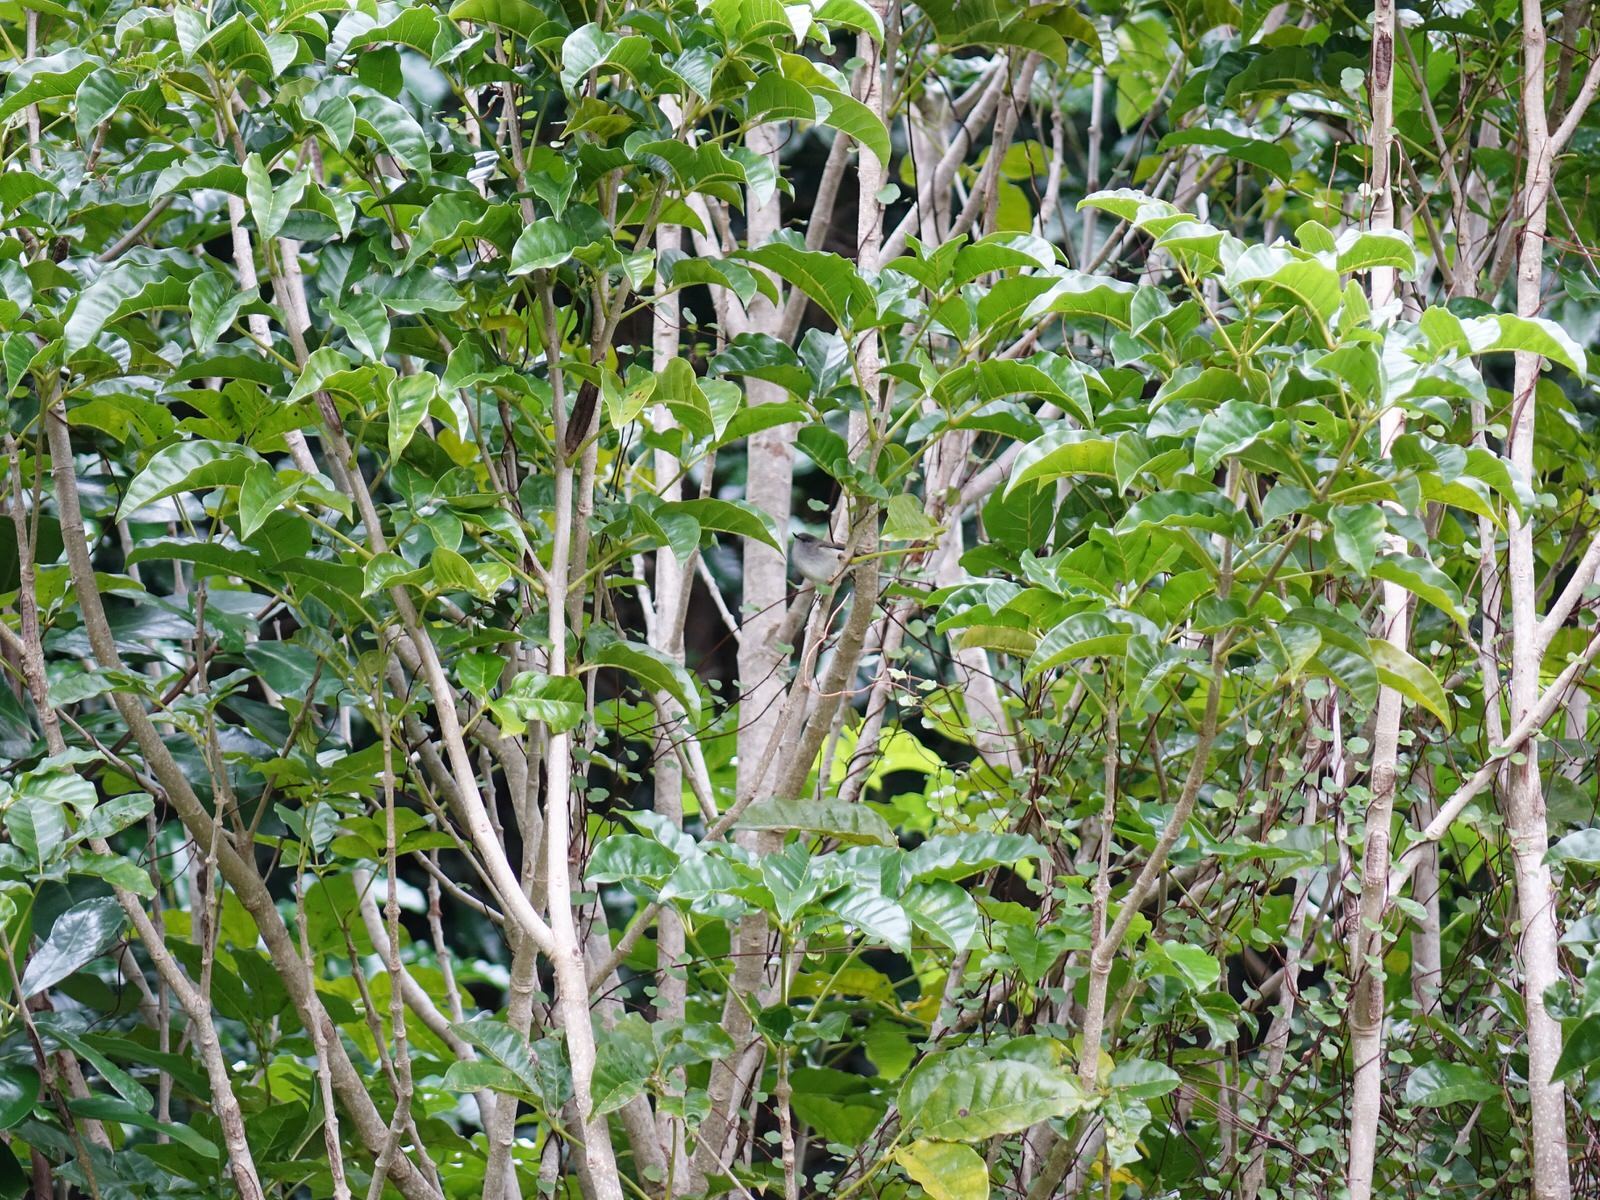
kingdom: Animalia
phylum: Chordata
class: Aves
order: Passeriformes
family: Acanthizidae
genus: Gerygone
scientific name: Gerygone igata
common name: Grey gerygone
